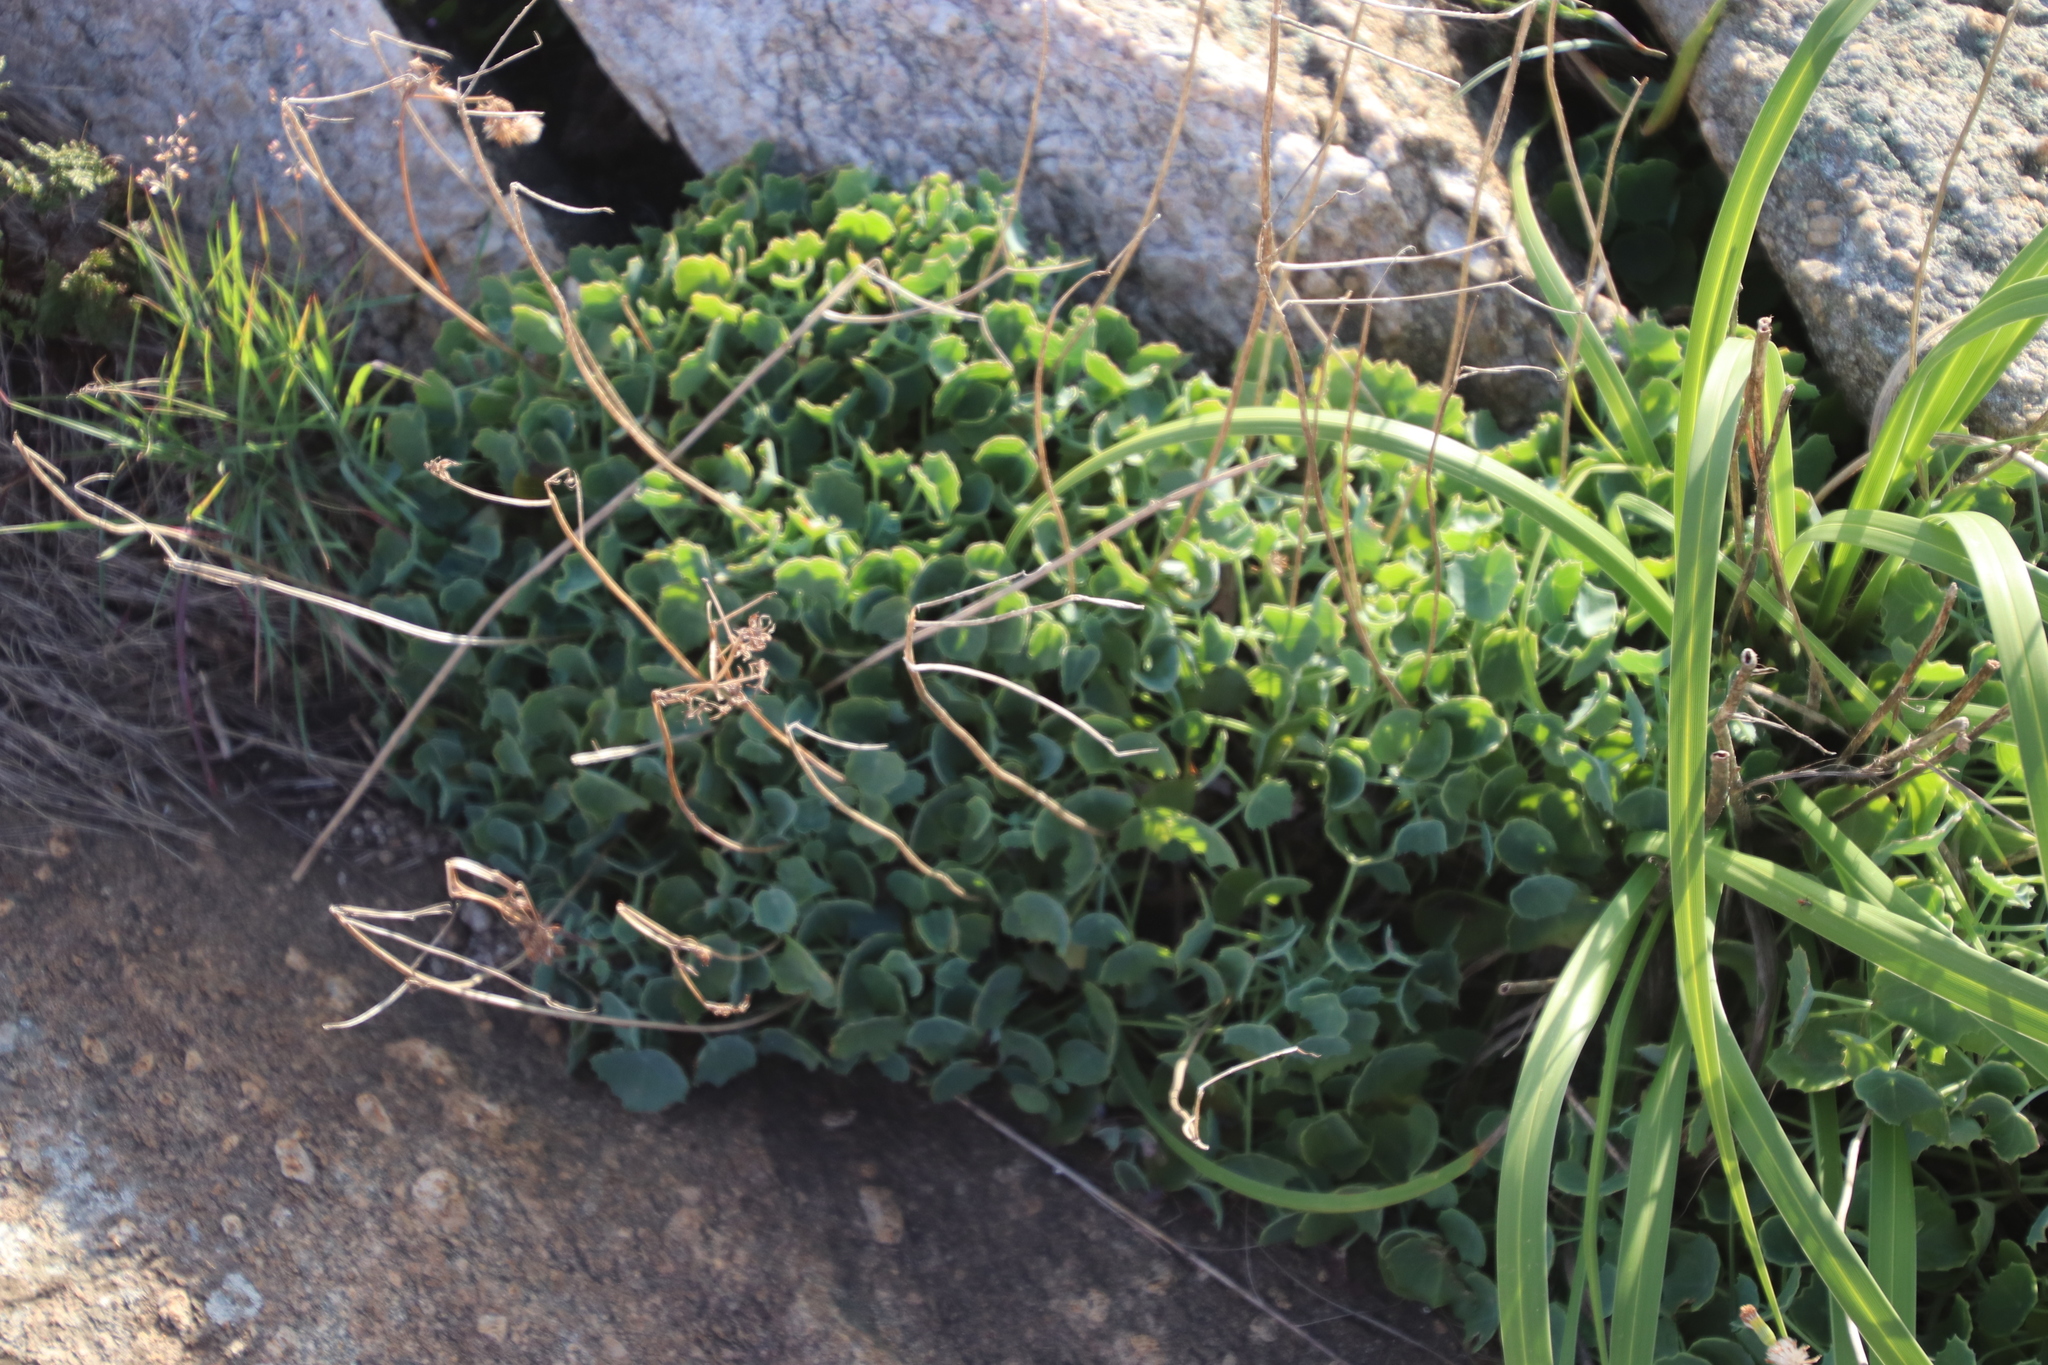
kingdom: Plantae
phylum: Tracheophyta
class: Magnoliopsida
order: Asterales
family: Asteraceae
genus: Senecio
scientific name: Senecio oxyriifolius
